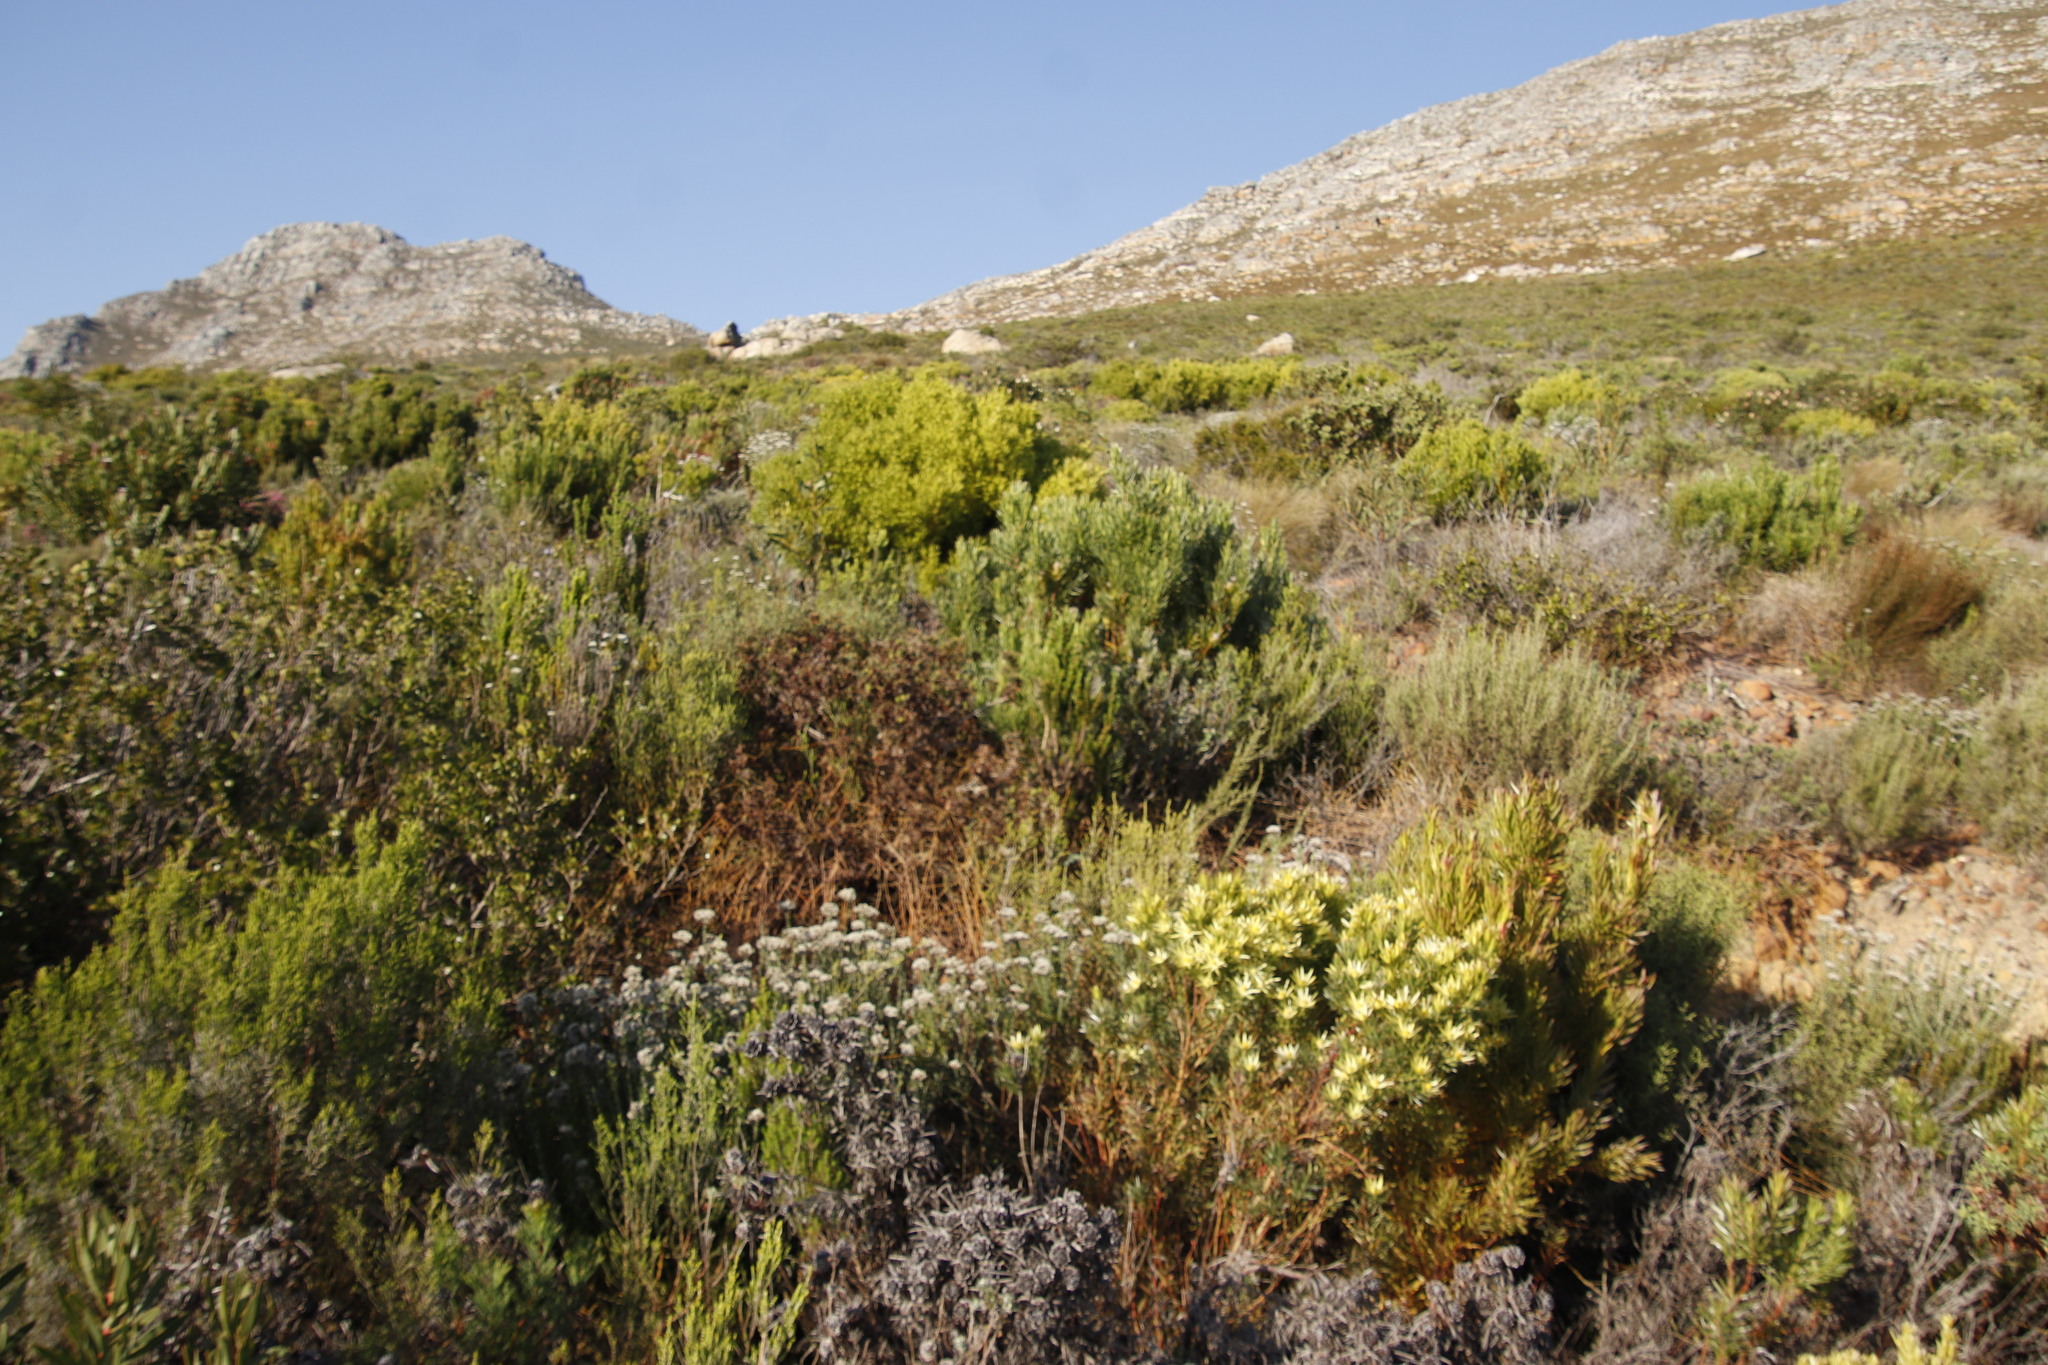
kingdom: Plantae
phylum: Tracheophyta
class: Magnoliopsida
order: Proteales
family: Proteaceae
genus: Leucadendron
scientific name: Leucadendron xanthoconus
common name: Sickle-leaf conebush
